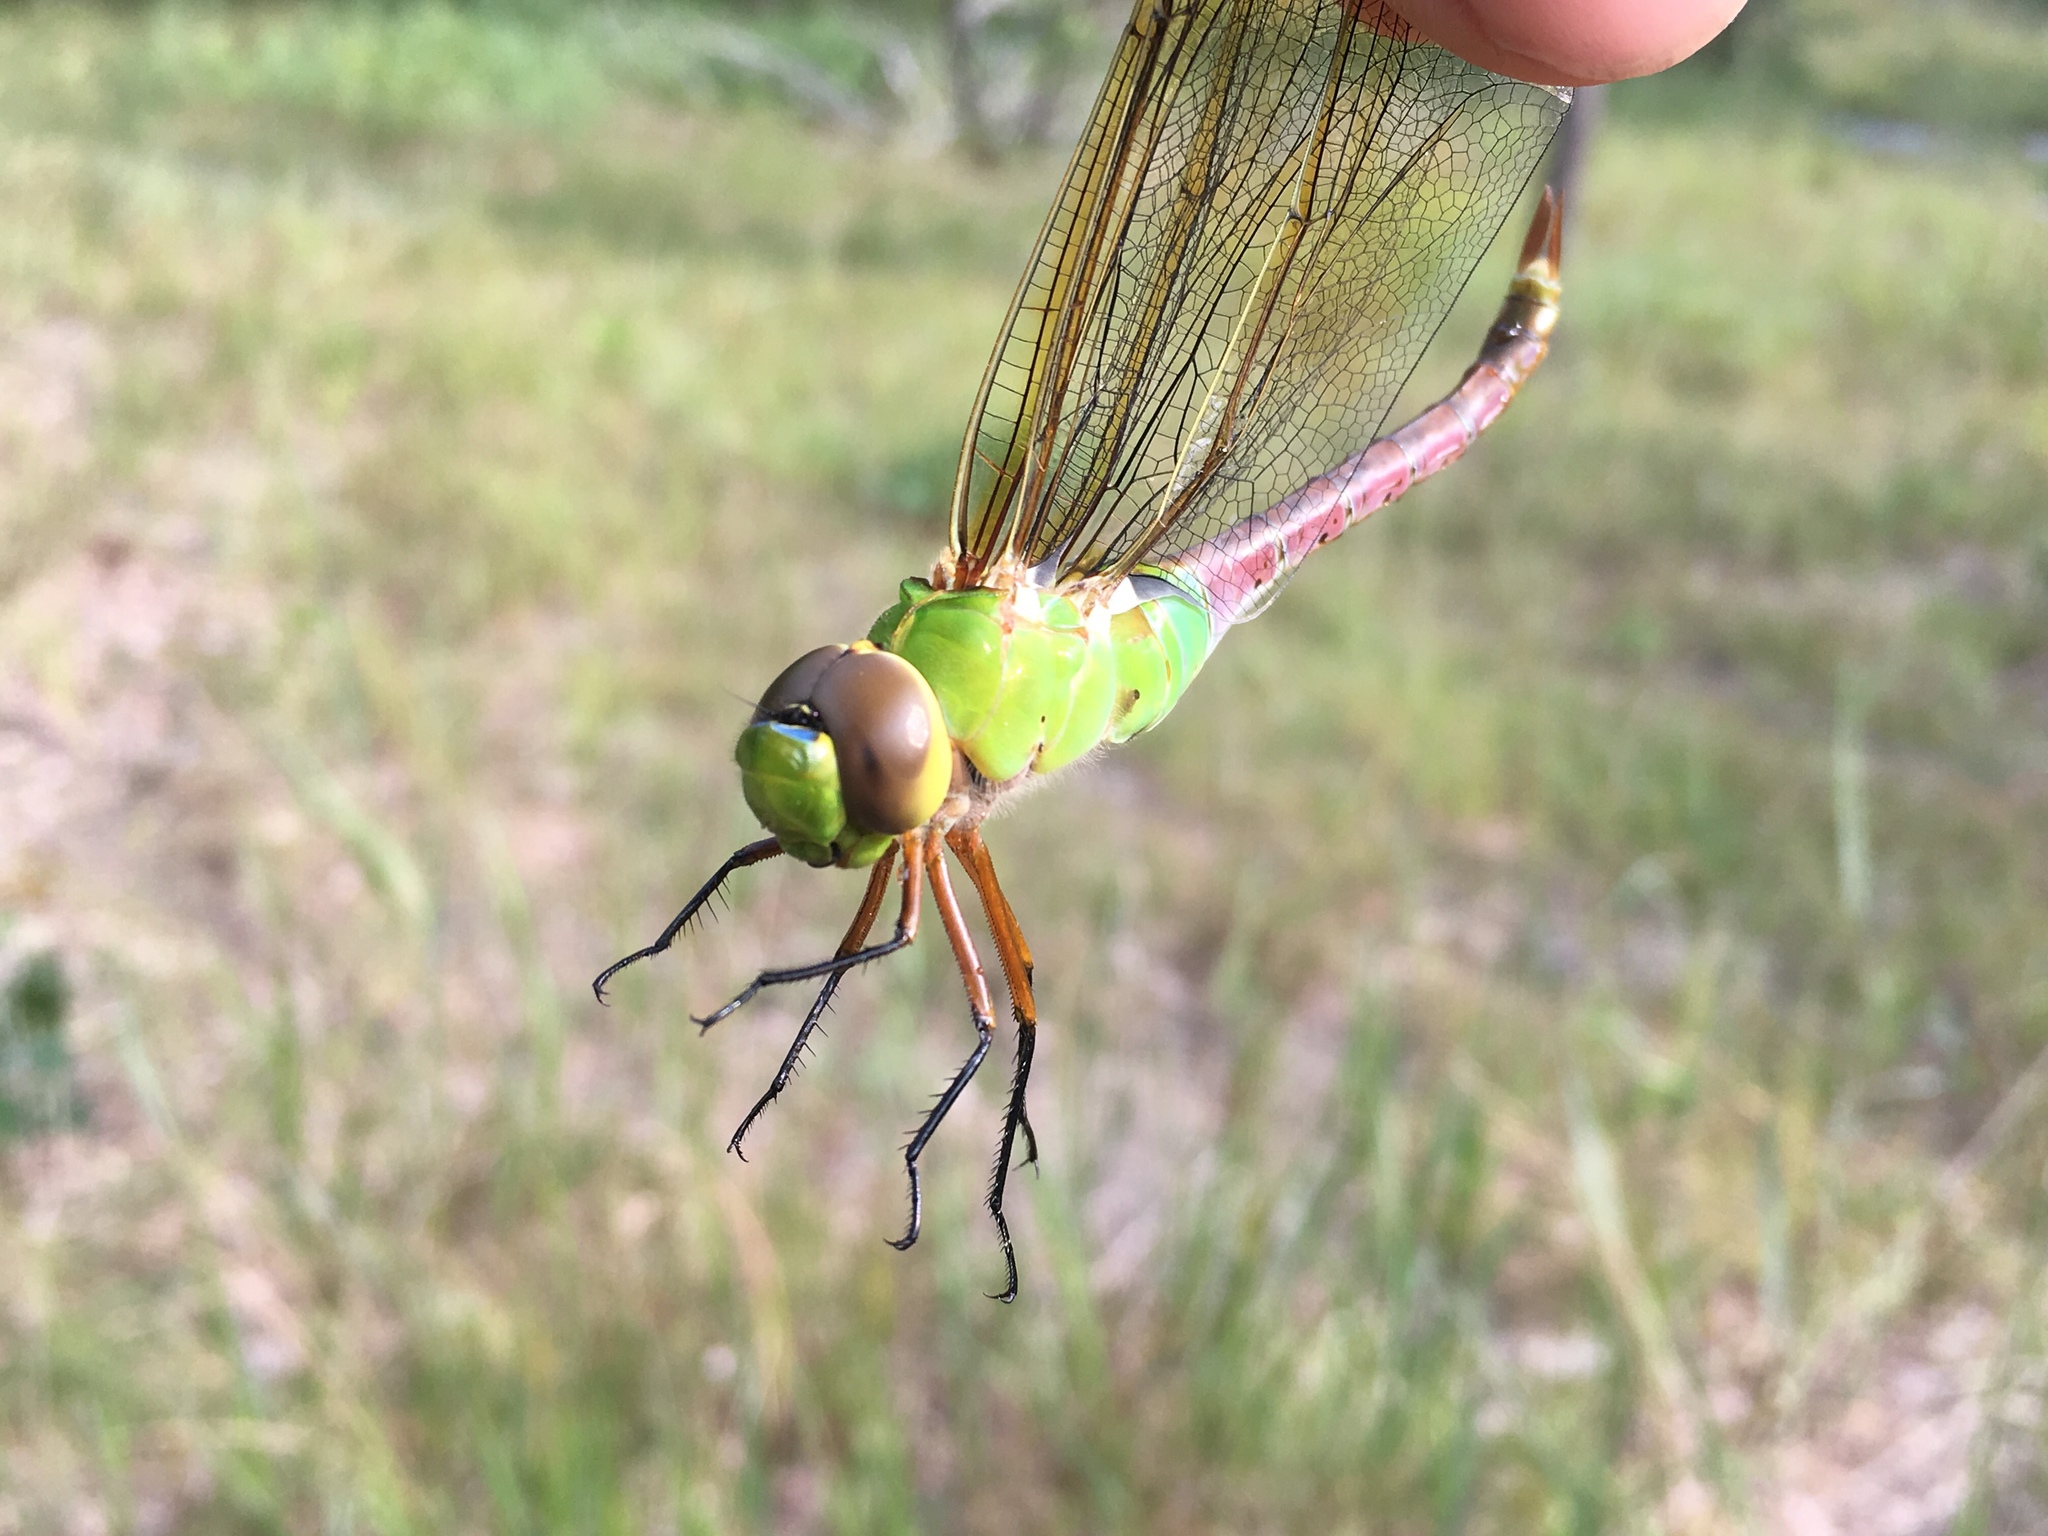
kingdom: Animalia
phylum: Arthropoda
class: Insecta
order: Odonata
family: Aeshnidae
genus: Anax
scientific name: Anax junius
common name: Common green darner
